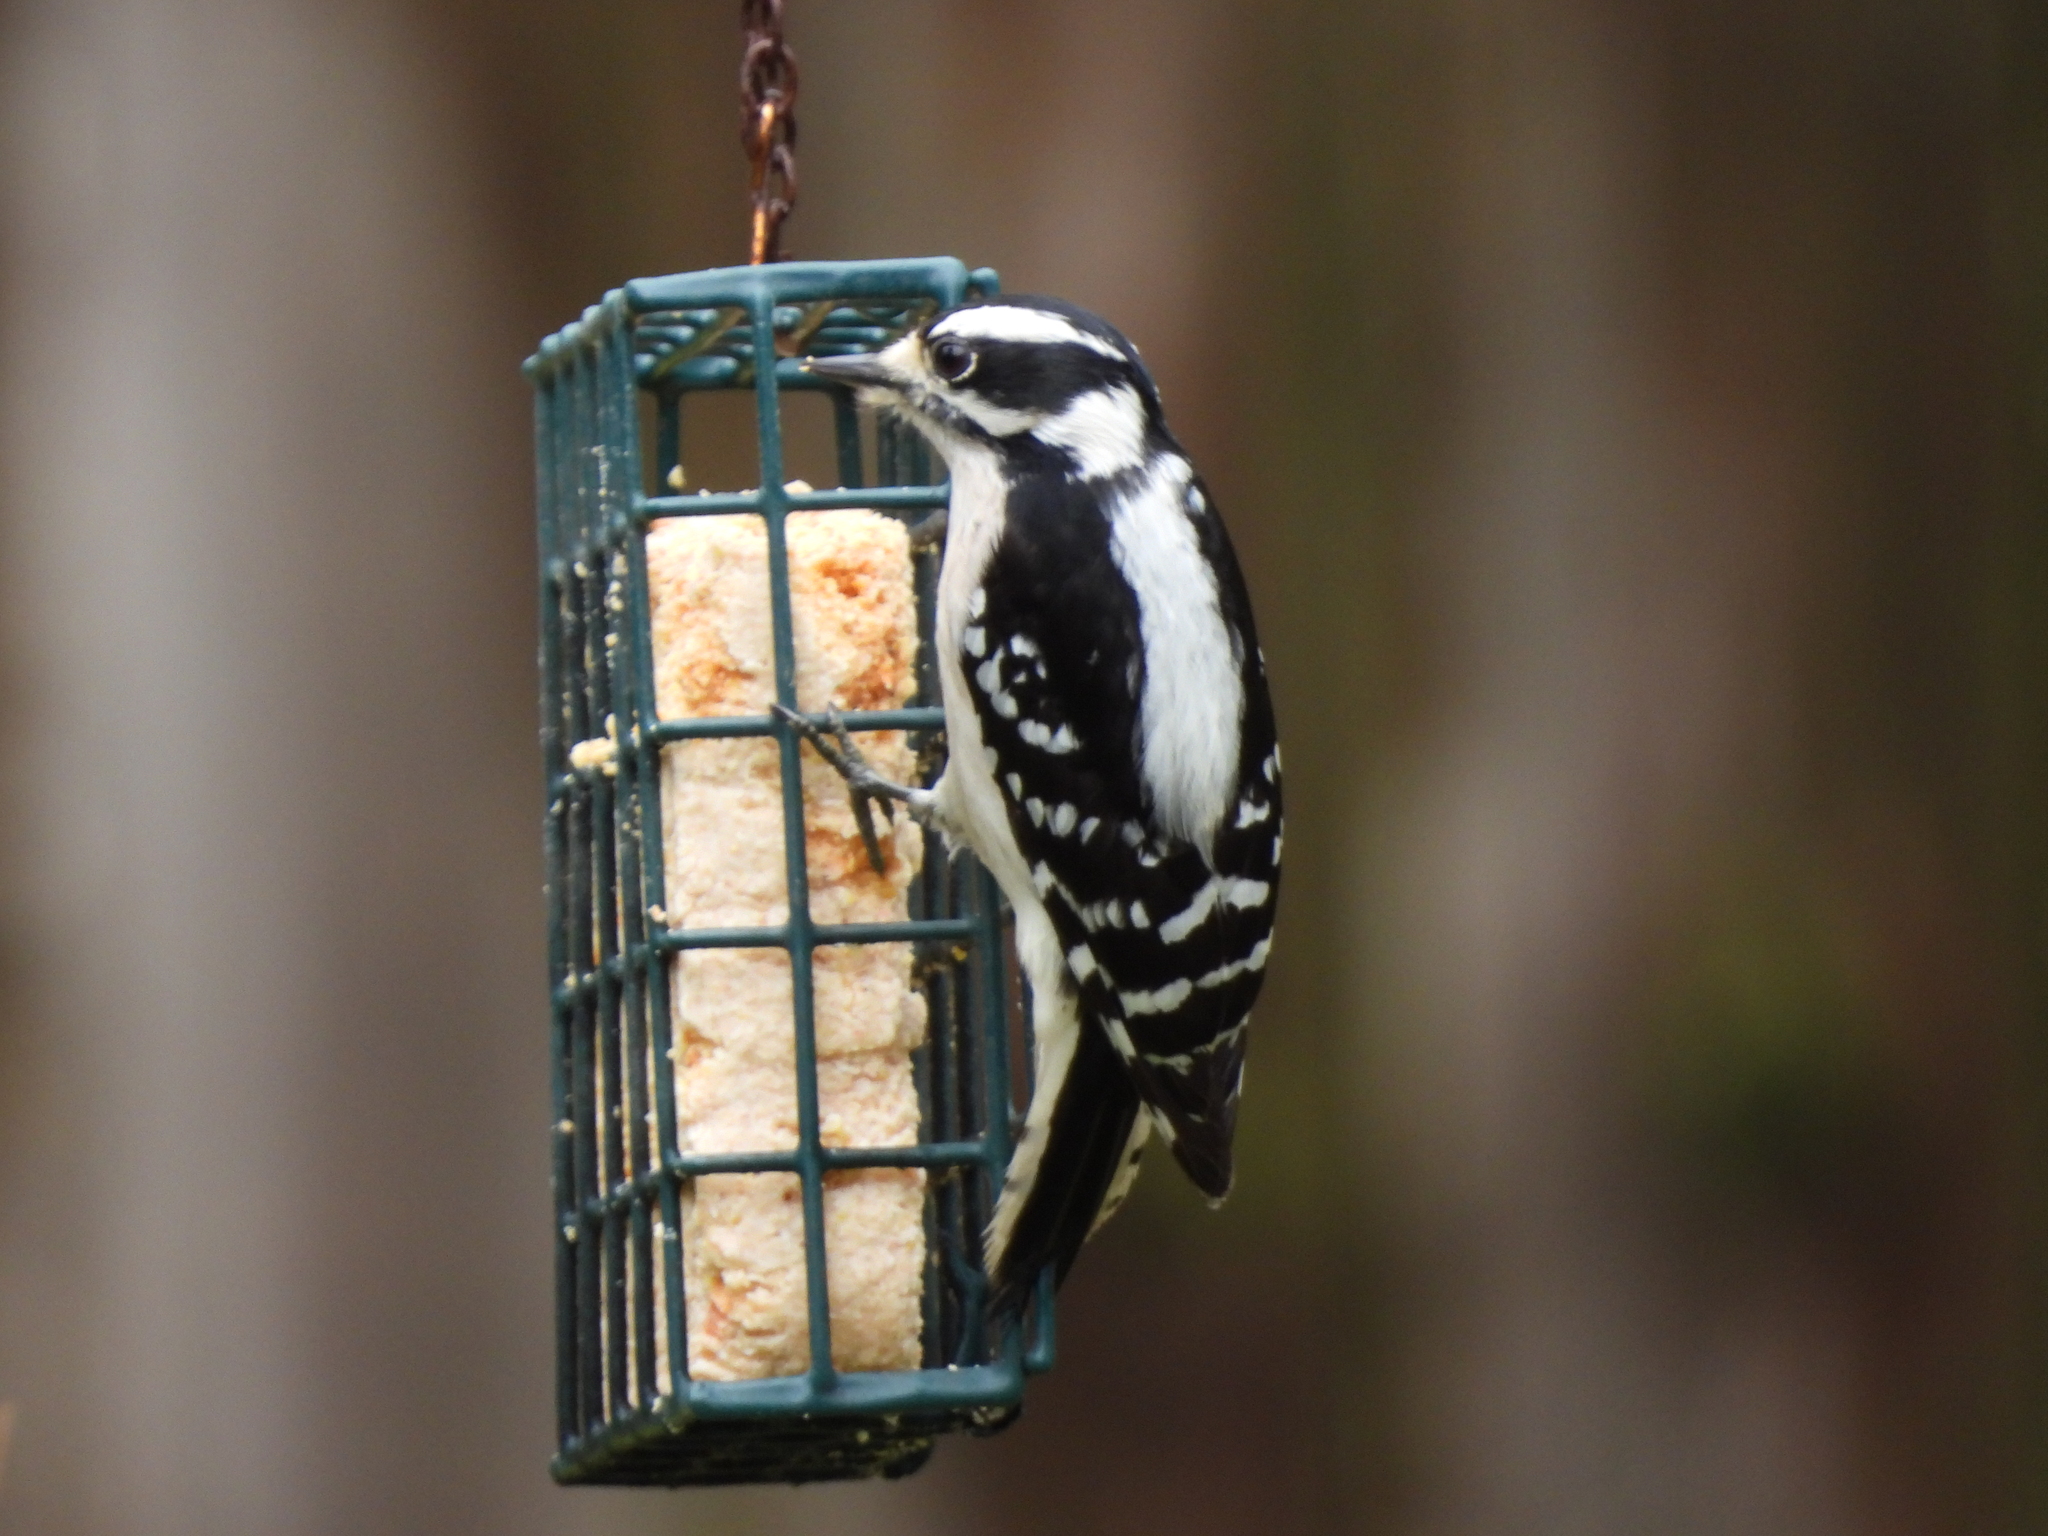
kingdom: Animalia
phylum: Chordata
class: Aves
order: Piciformes
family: Picidae
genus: Dryobates
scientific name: Dryobates pubescens
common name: Downy woodpecker
